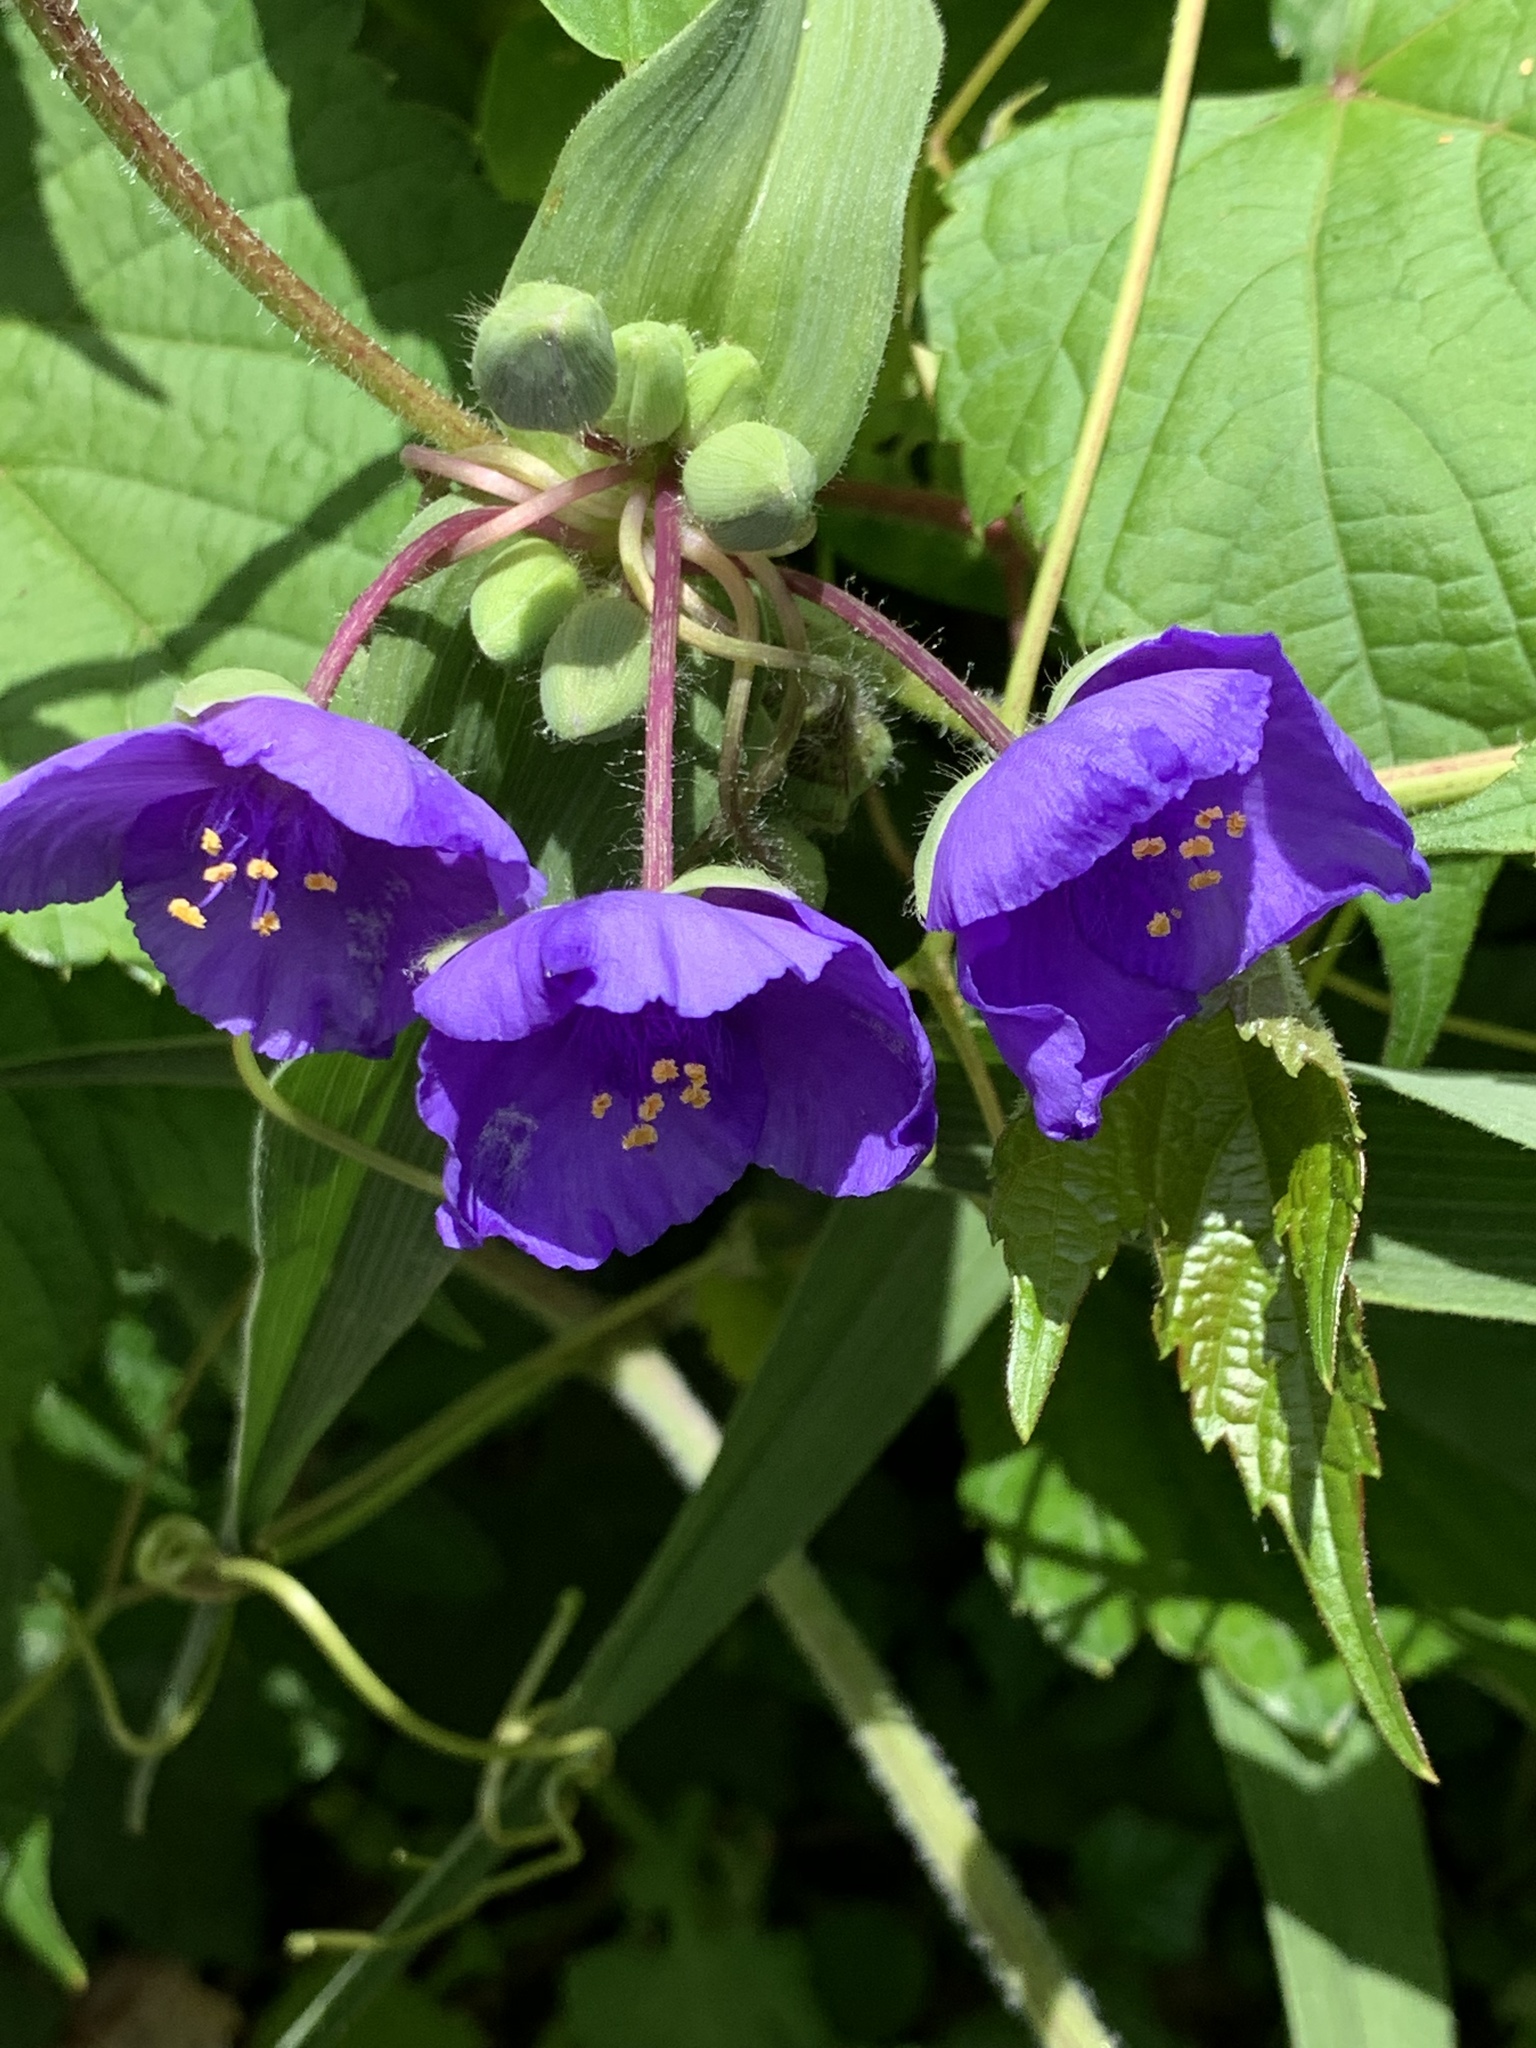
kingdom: Plantae
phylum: Tracheophyta
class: Liliopsida
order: Commelinales
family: Commelinaceae
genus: Tradescantia
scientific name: Tradescantia virginiana
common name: Spiderwort
